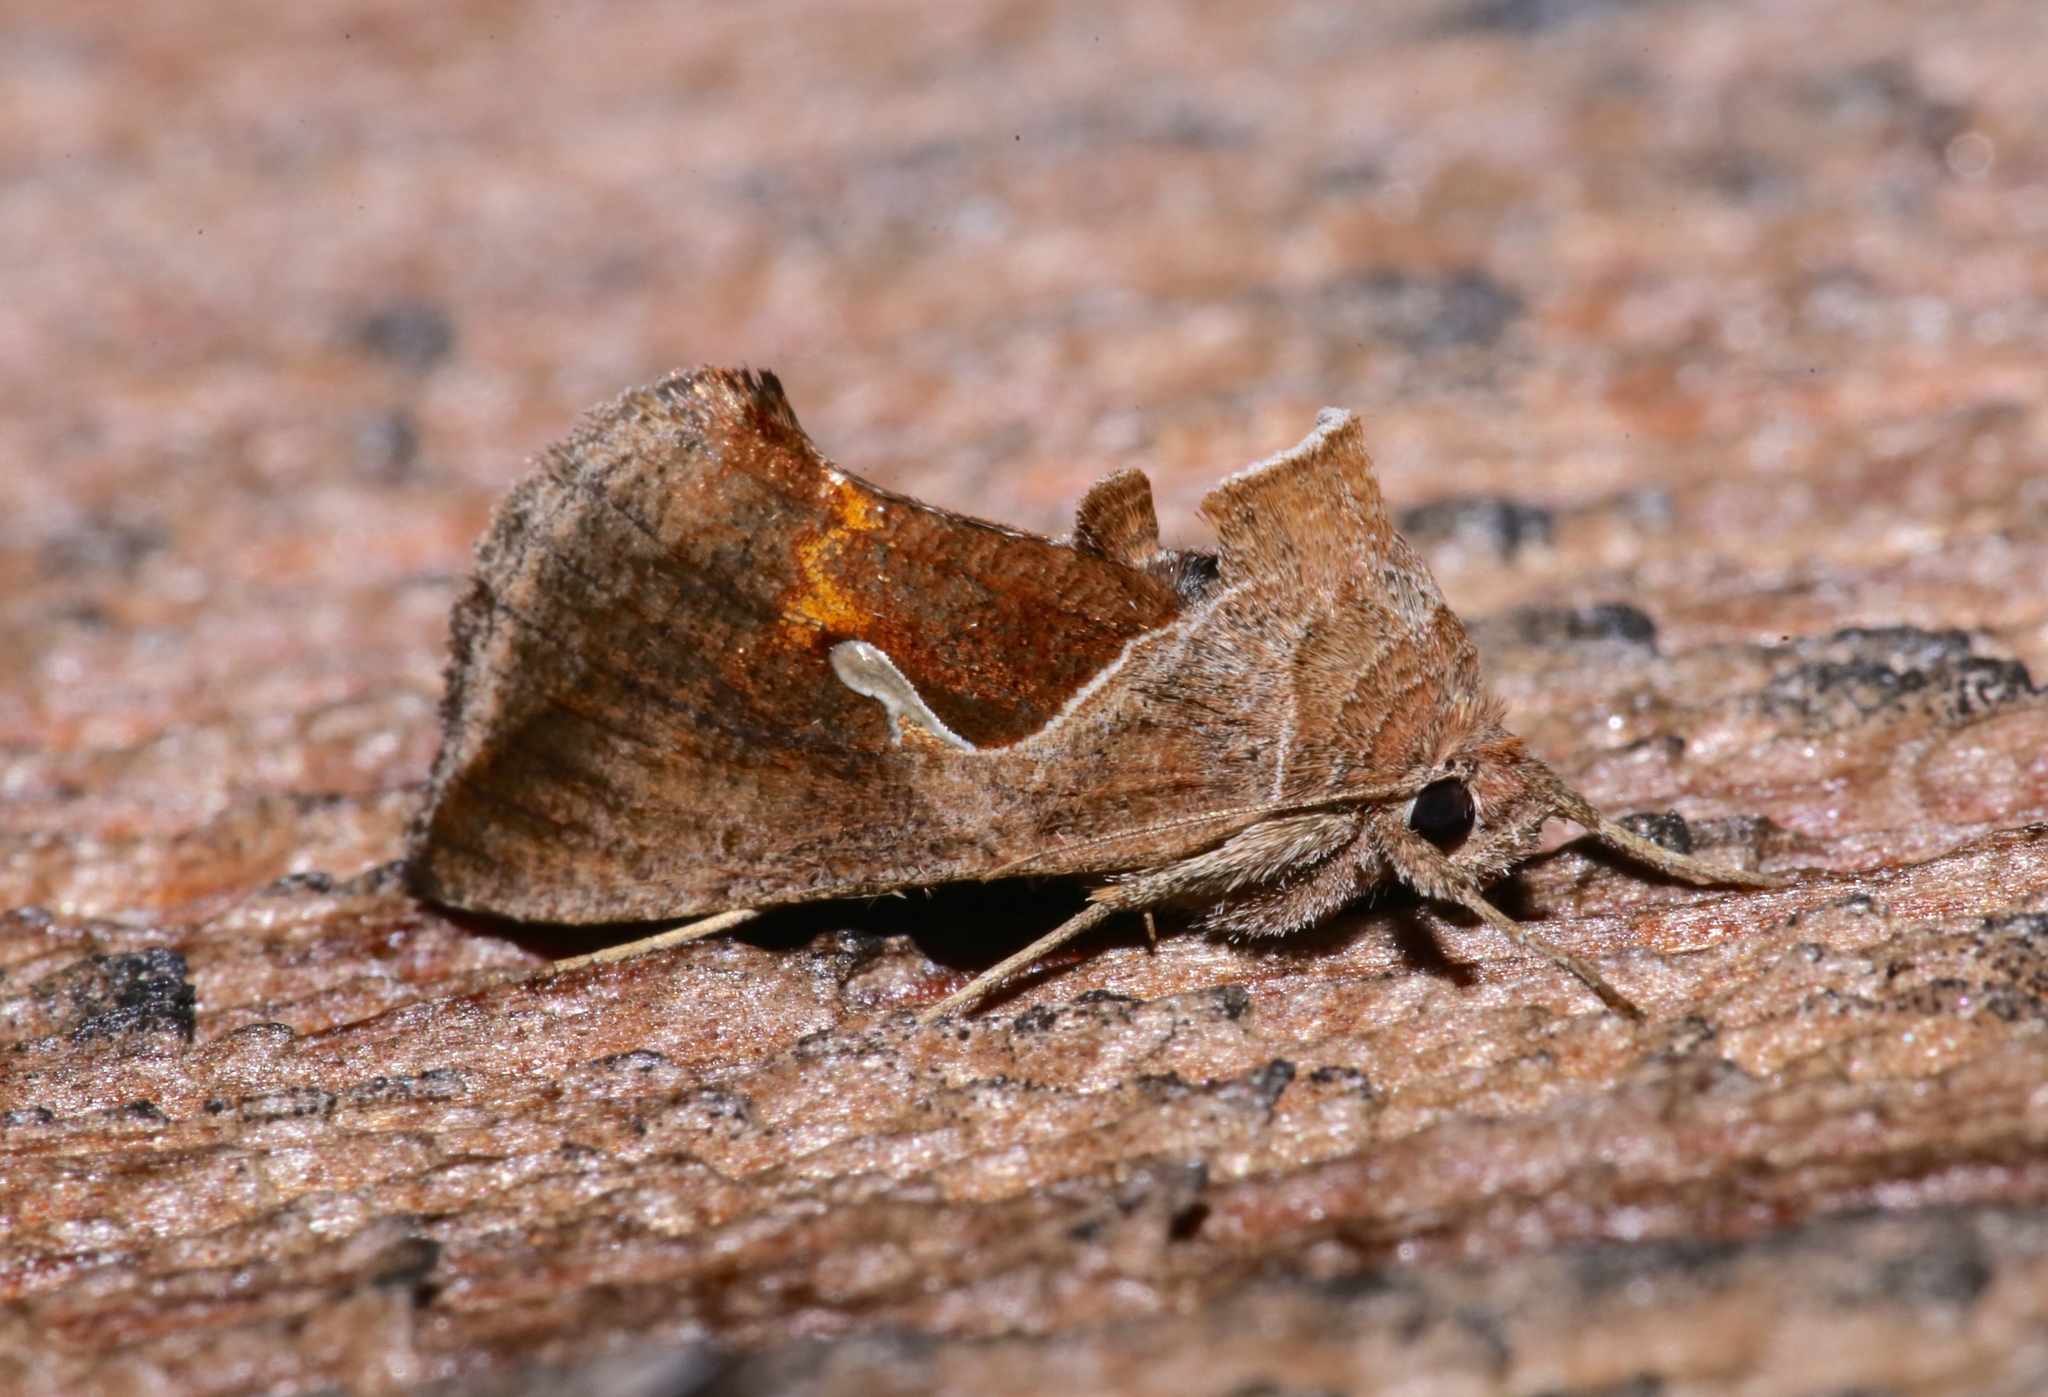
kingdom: Animalia
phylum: Arthropoda
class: Insecta
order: Lepidoptera
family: Noctuidae
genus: Anagrapha
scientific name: Anagrapha falcifera
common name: Celery looper
